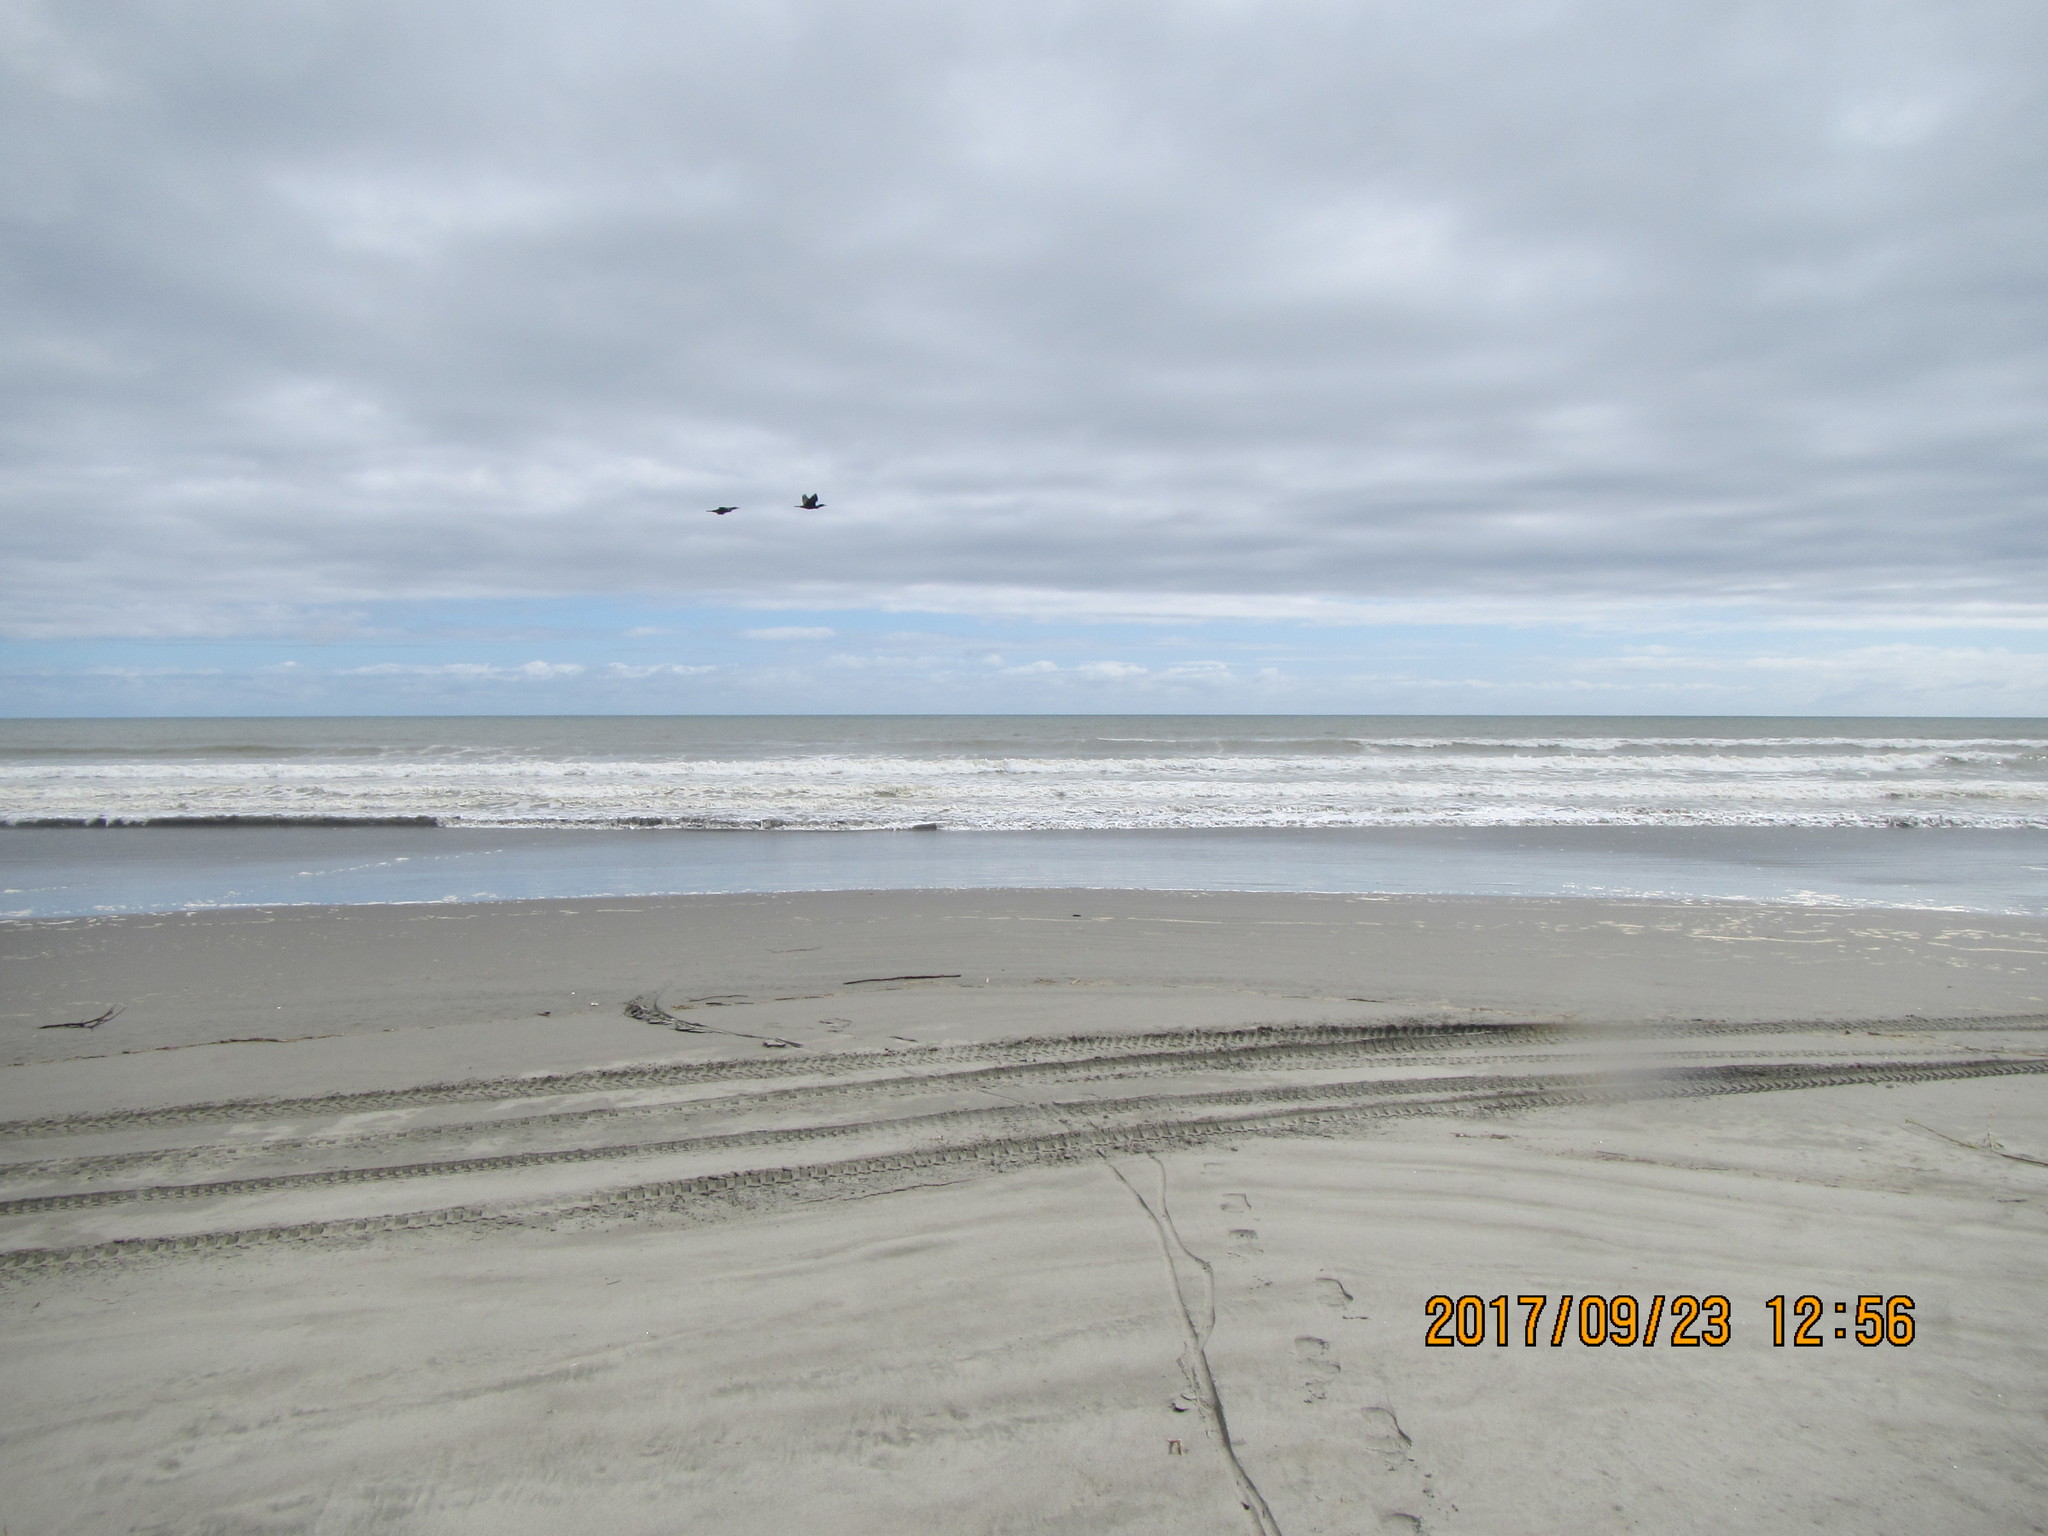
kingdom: Animalia
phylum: Chordata
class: Aves
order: Suliformes
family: Phalacrocoracidae
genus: Phalacrocorax
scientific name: Phalacrocorax carbo
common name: Great cormorant
